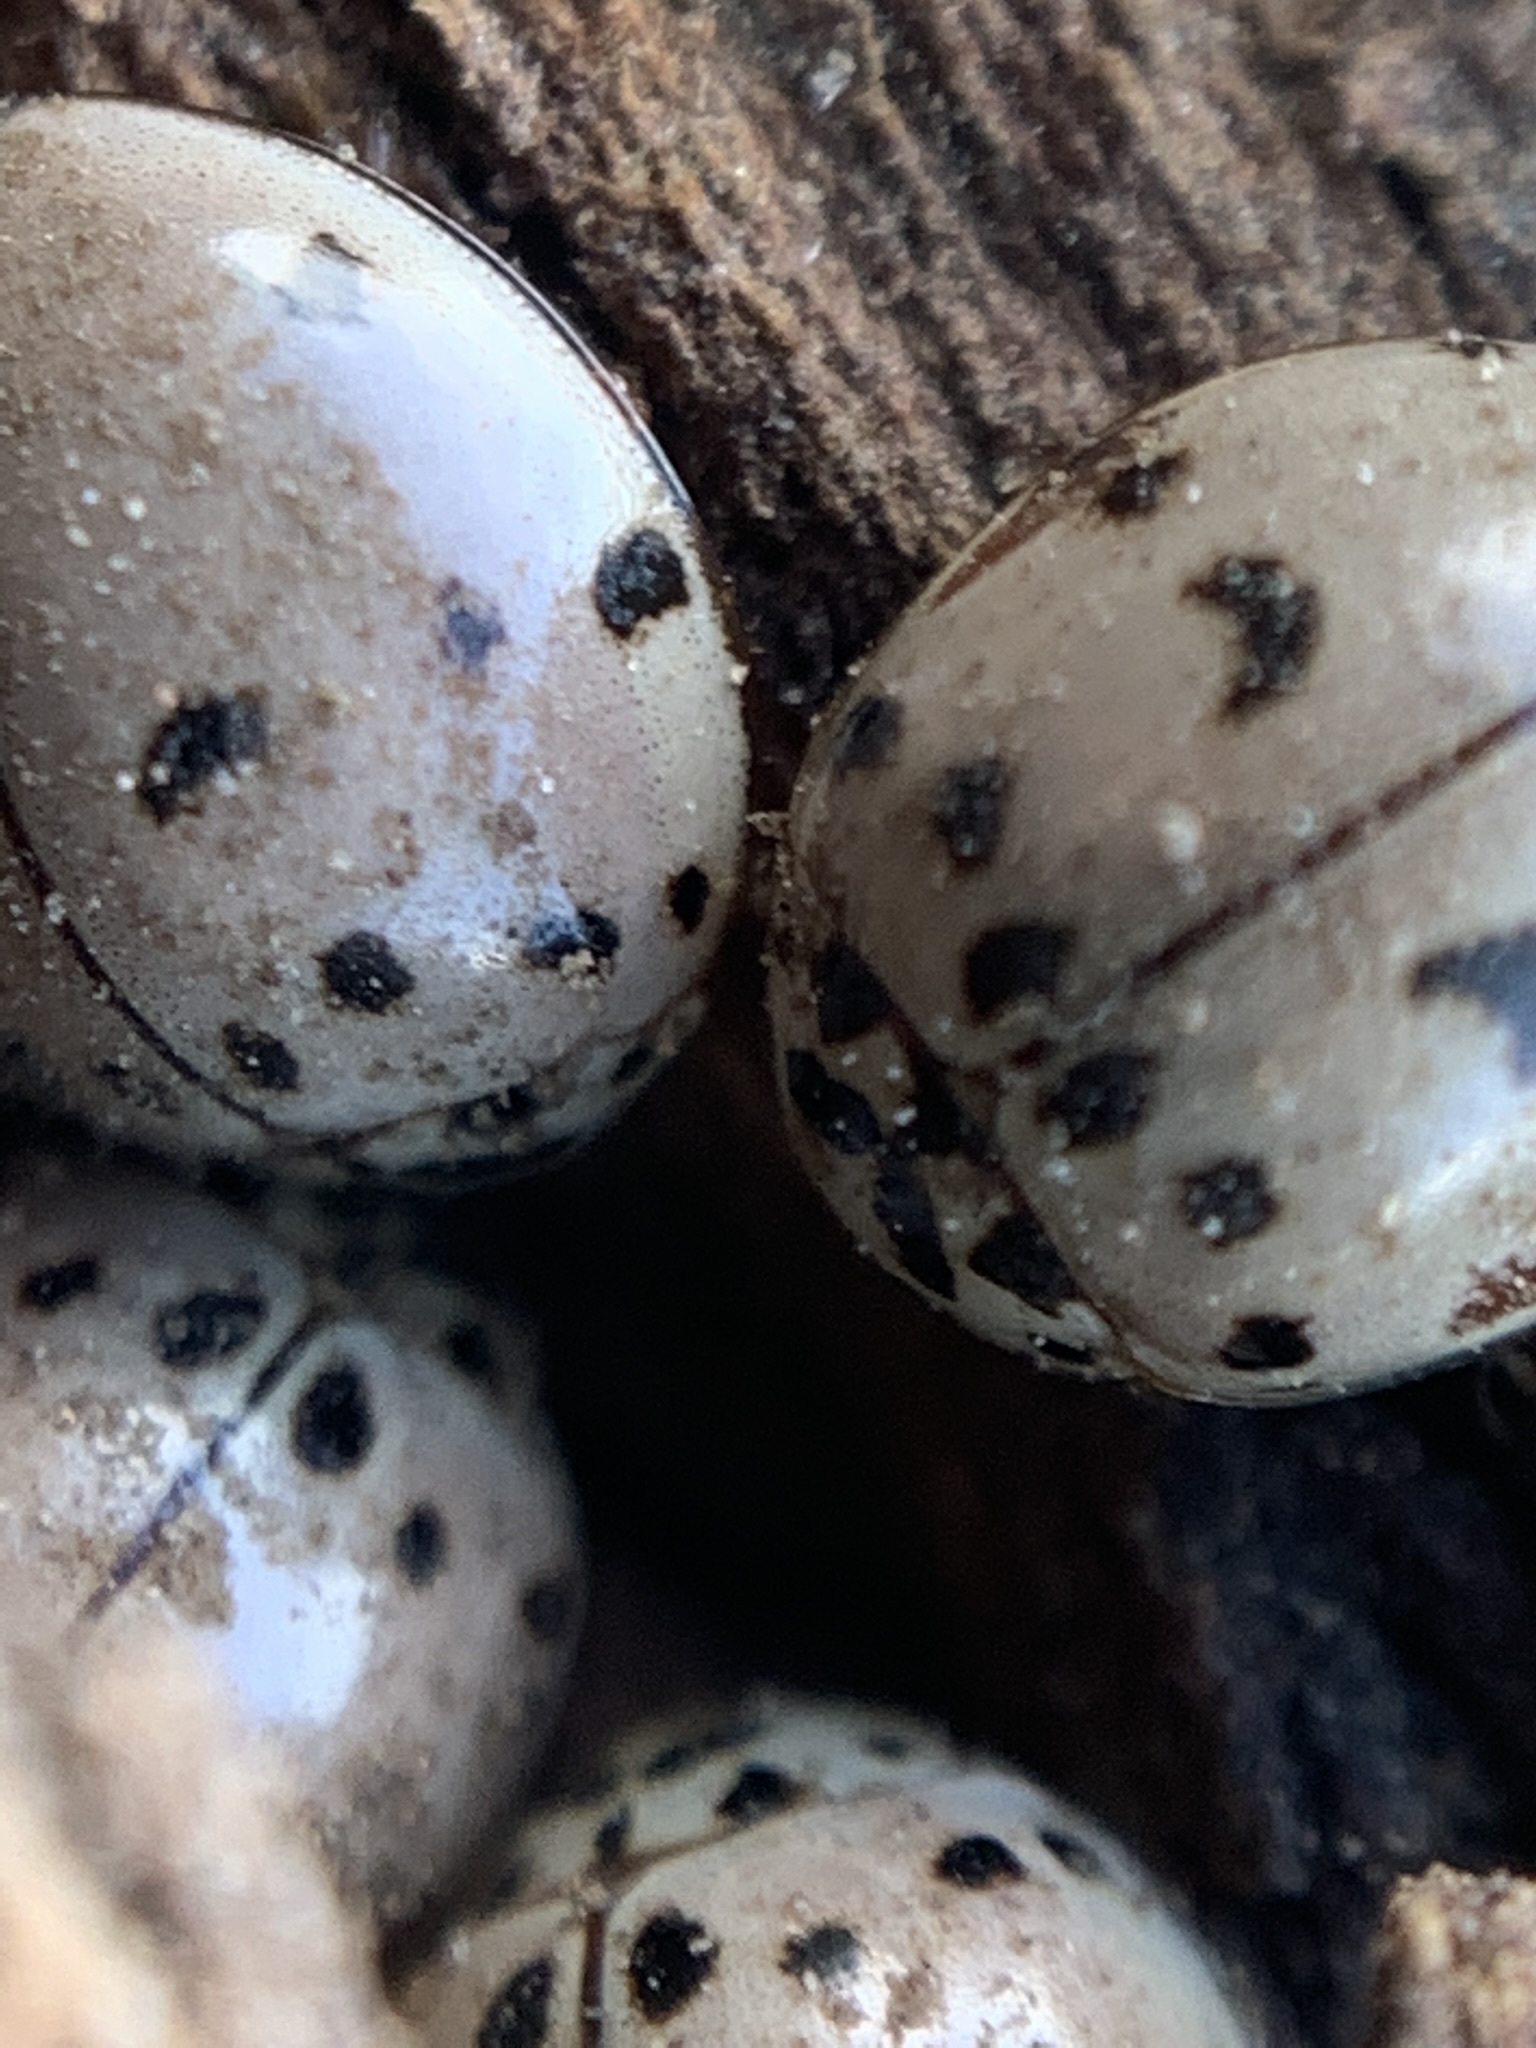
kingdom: Animalia
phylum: Arthropoda
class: Insecta
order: Coleoptera
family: Coccinellidae
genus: Olla
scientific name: Olla v-nigrum
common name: Ashy gray lady beetle
